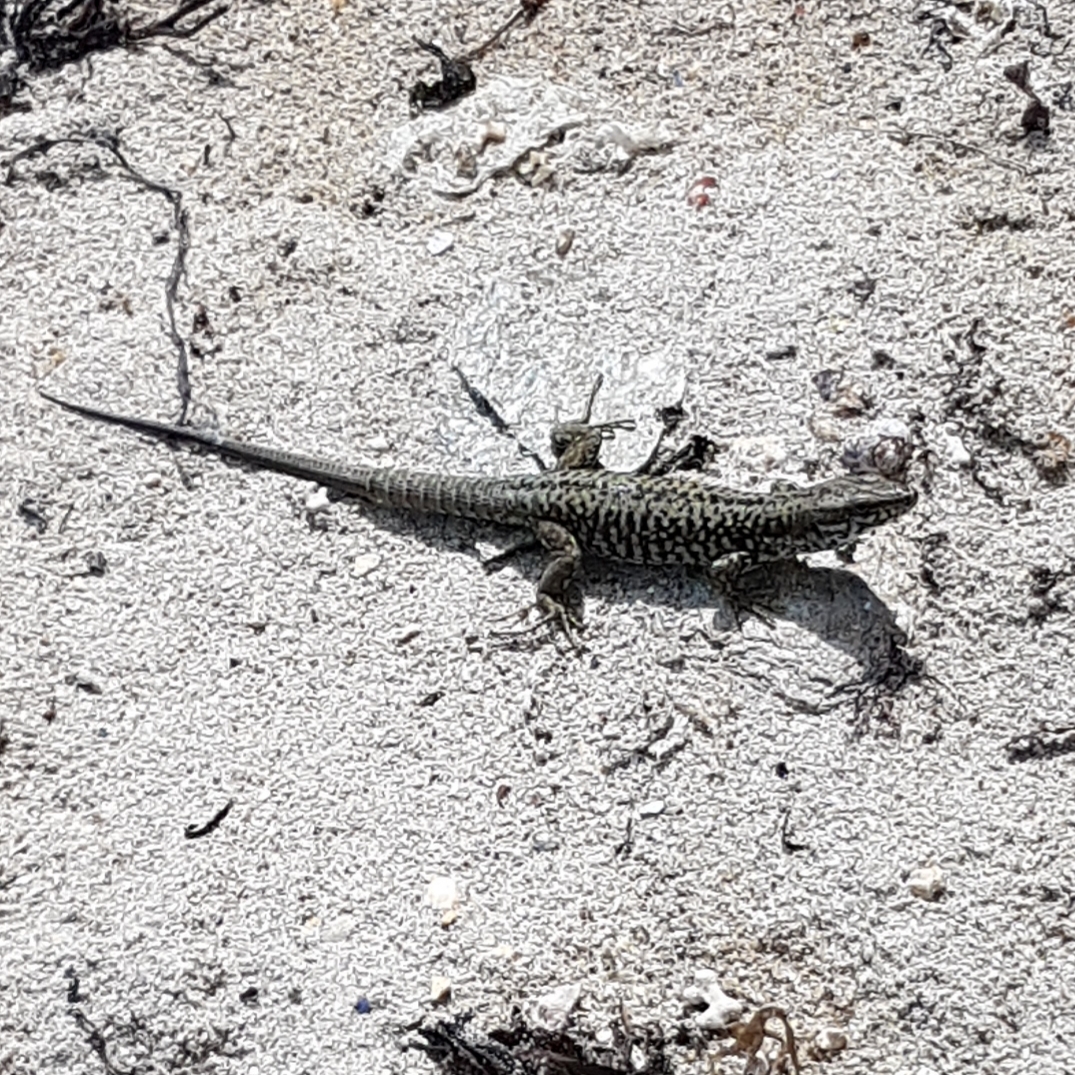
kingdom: Animalia
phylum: Chordata
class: Squamata
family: Lacertidae
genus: Podarcis
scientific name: Podarcis muralis
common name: Common wall lizard
